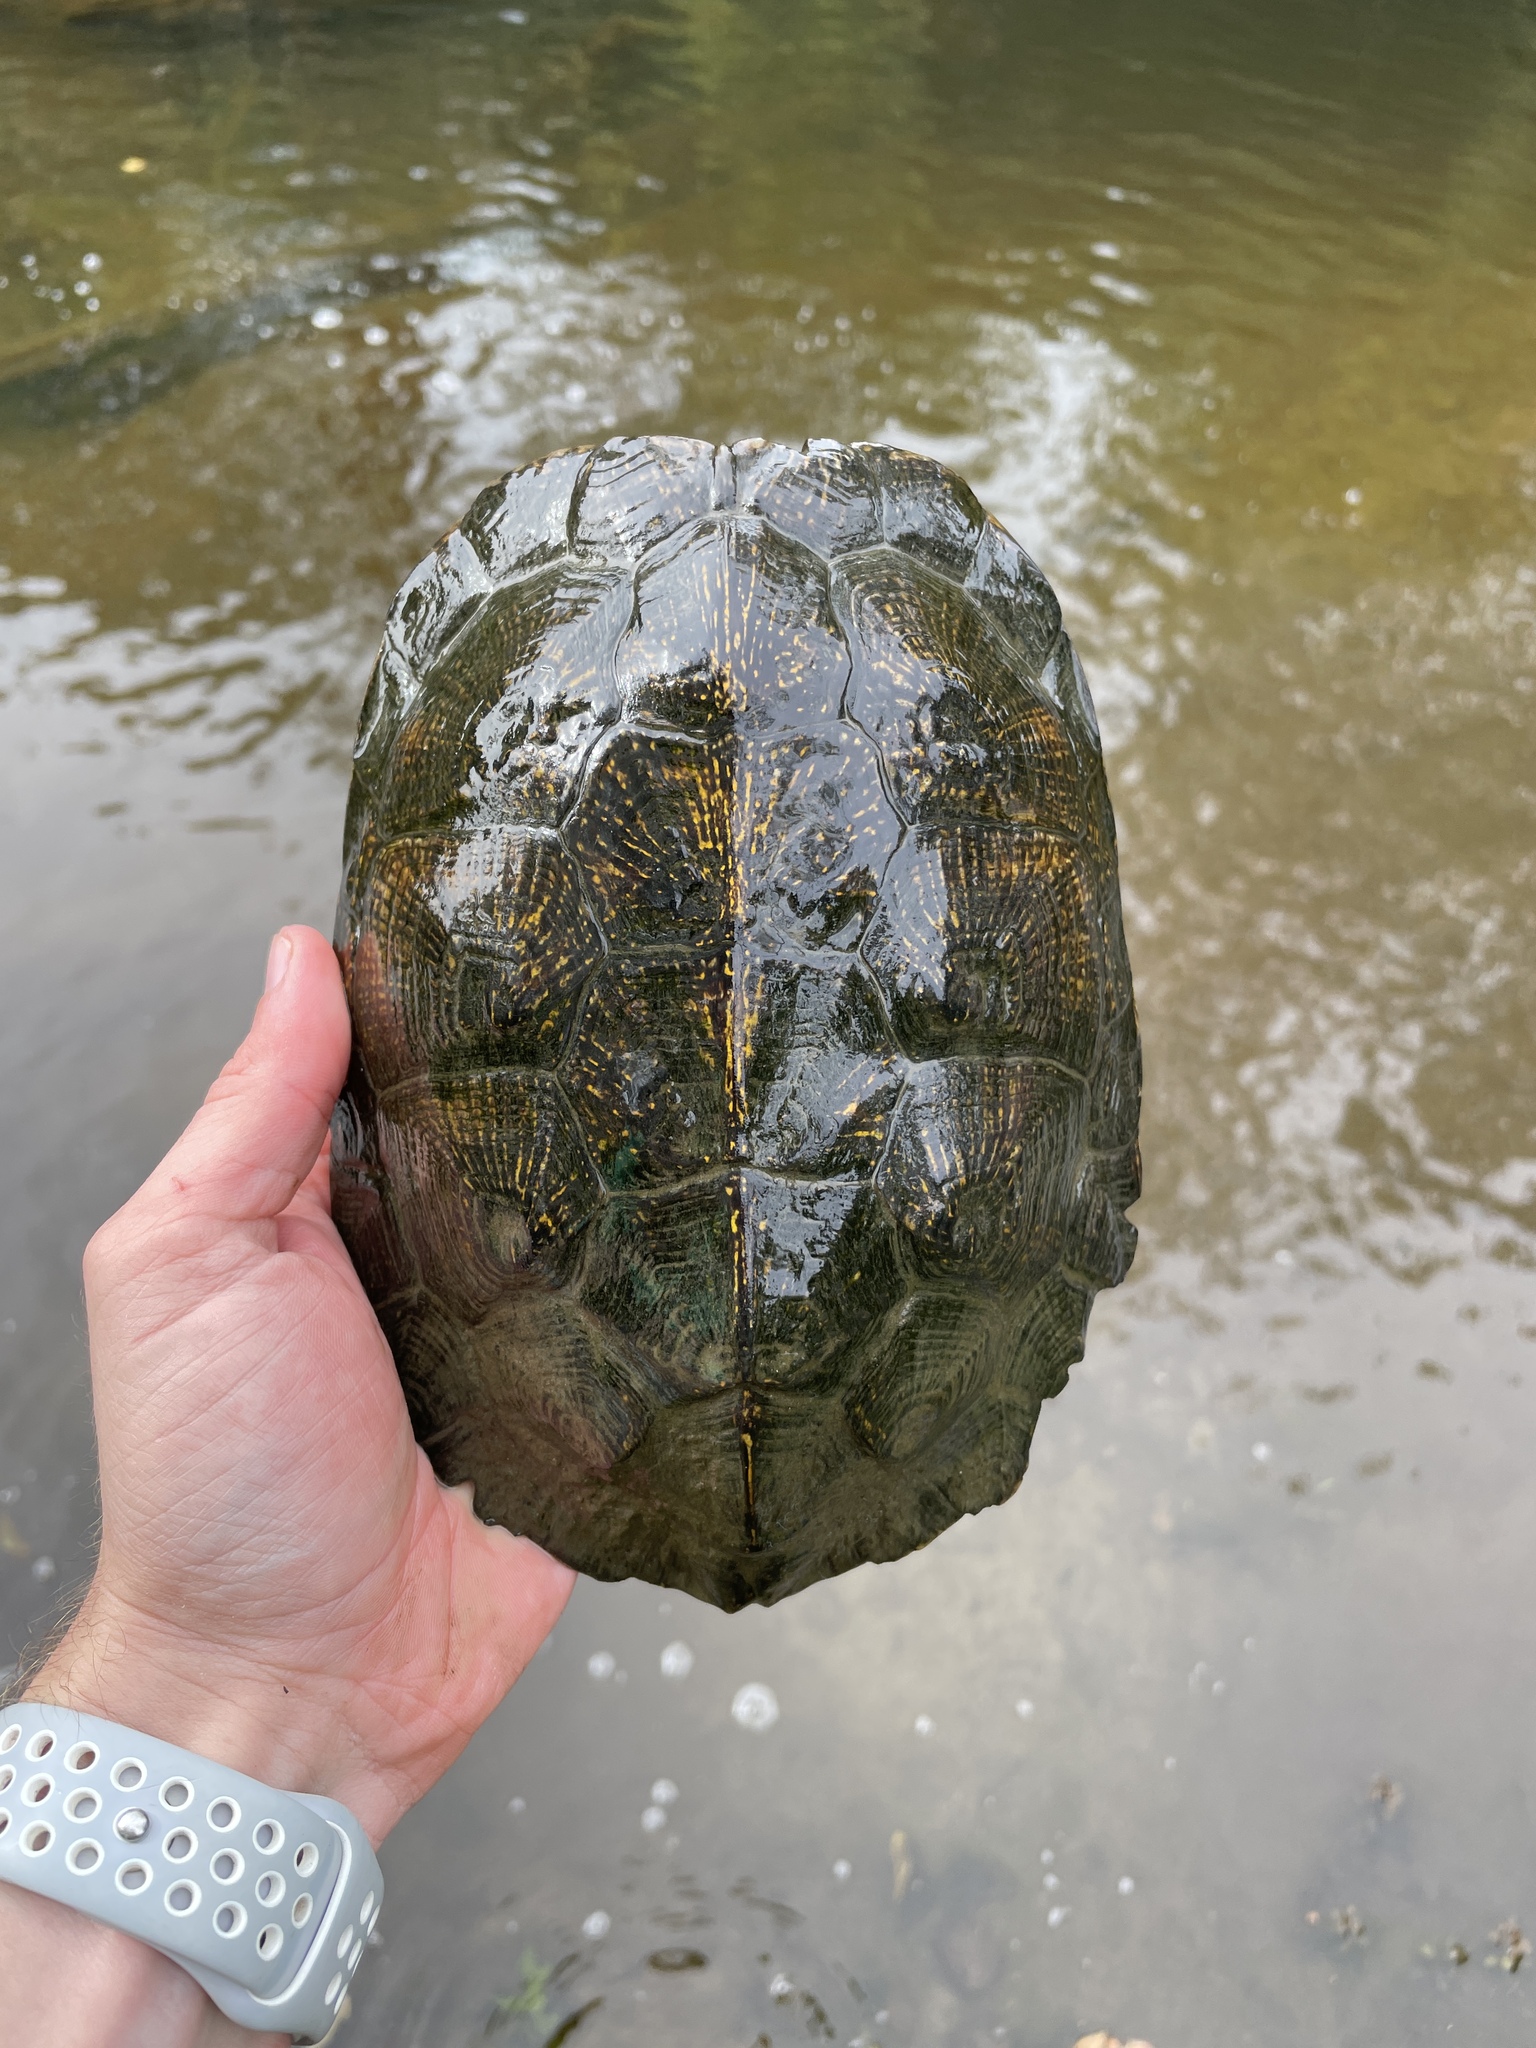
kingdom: Animalia
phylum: Chordata
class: Testudines
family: Emydidae
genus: Glyptemys
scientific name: Glyptemys insculpta
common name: Wood turtle
